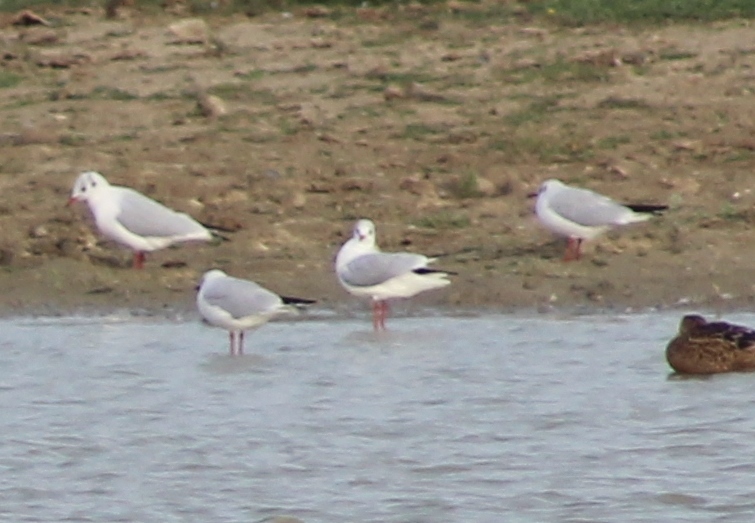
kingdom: Animalia
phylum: Chordata
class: Aves
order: Charadriiformes
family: Laridae
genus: Chroicocephalus
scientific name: Chroicocephalus ridibundus
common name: Black-headed gull
